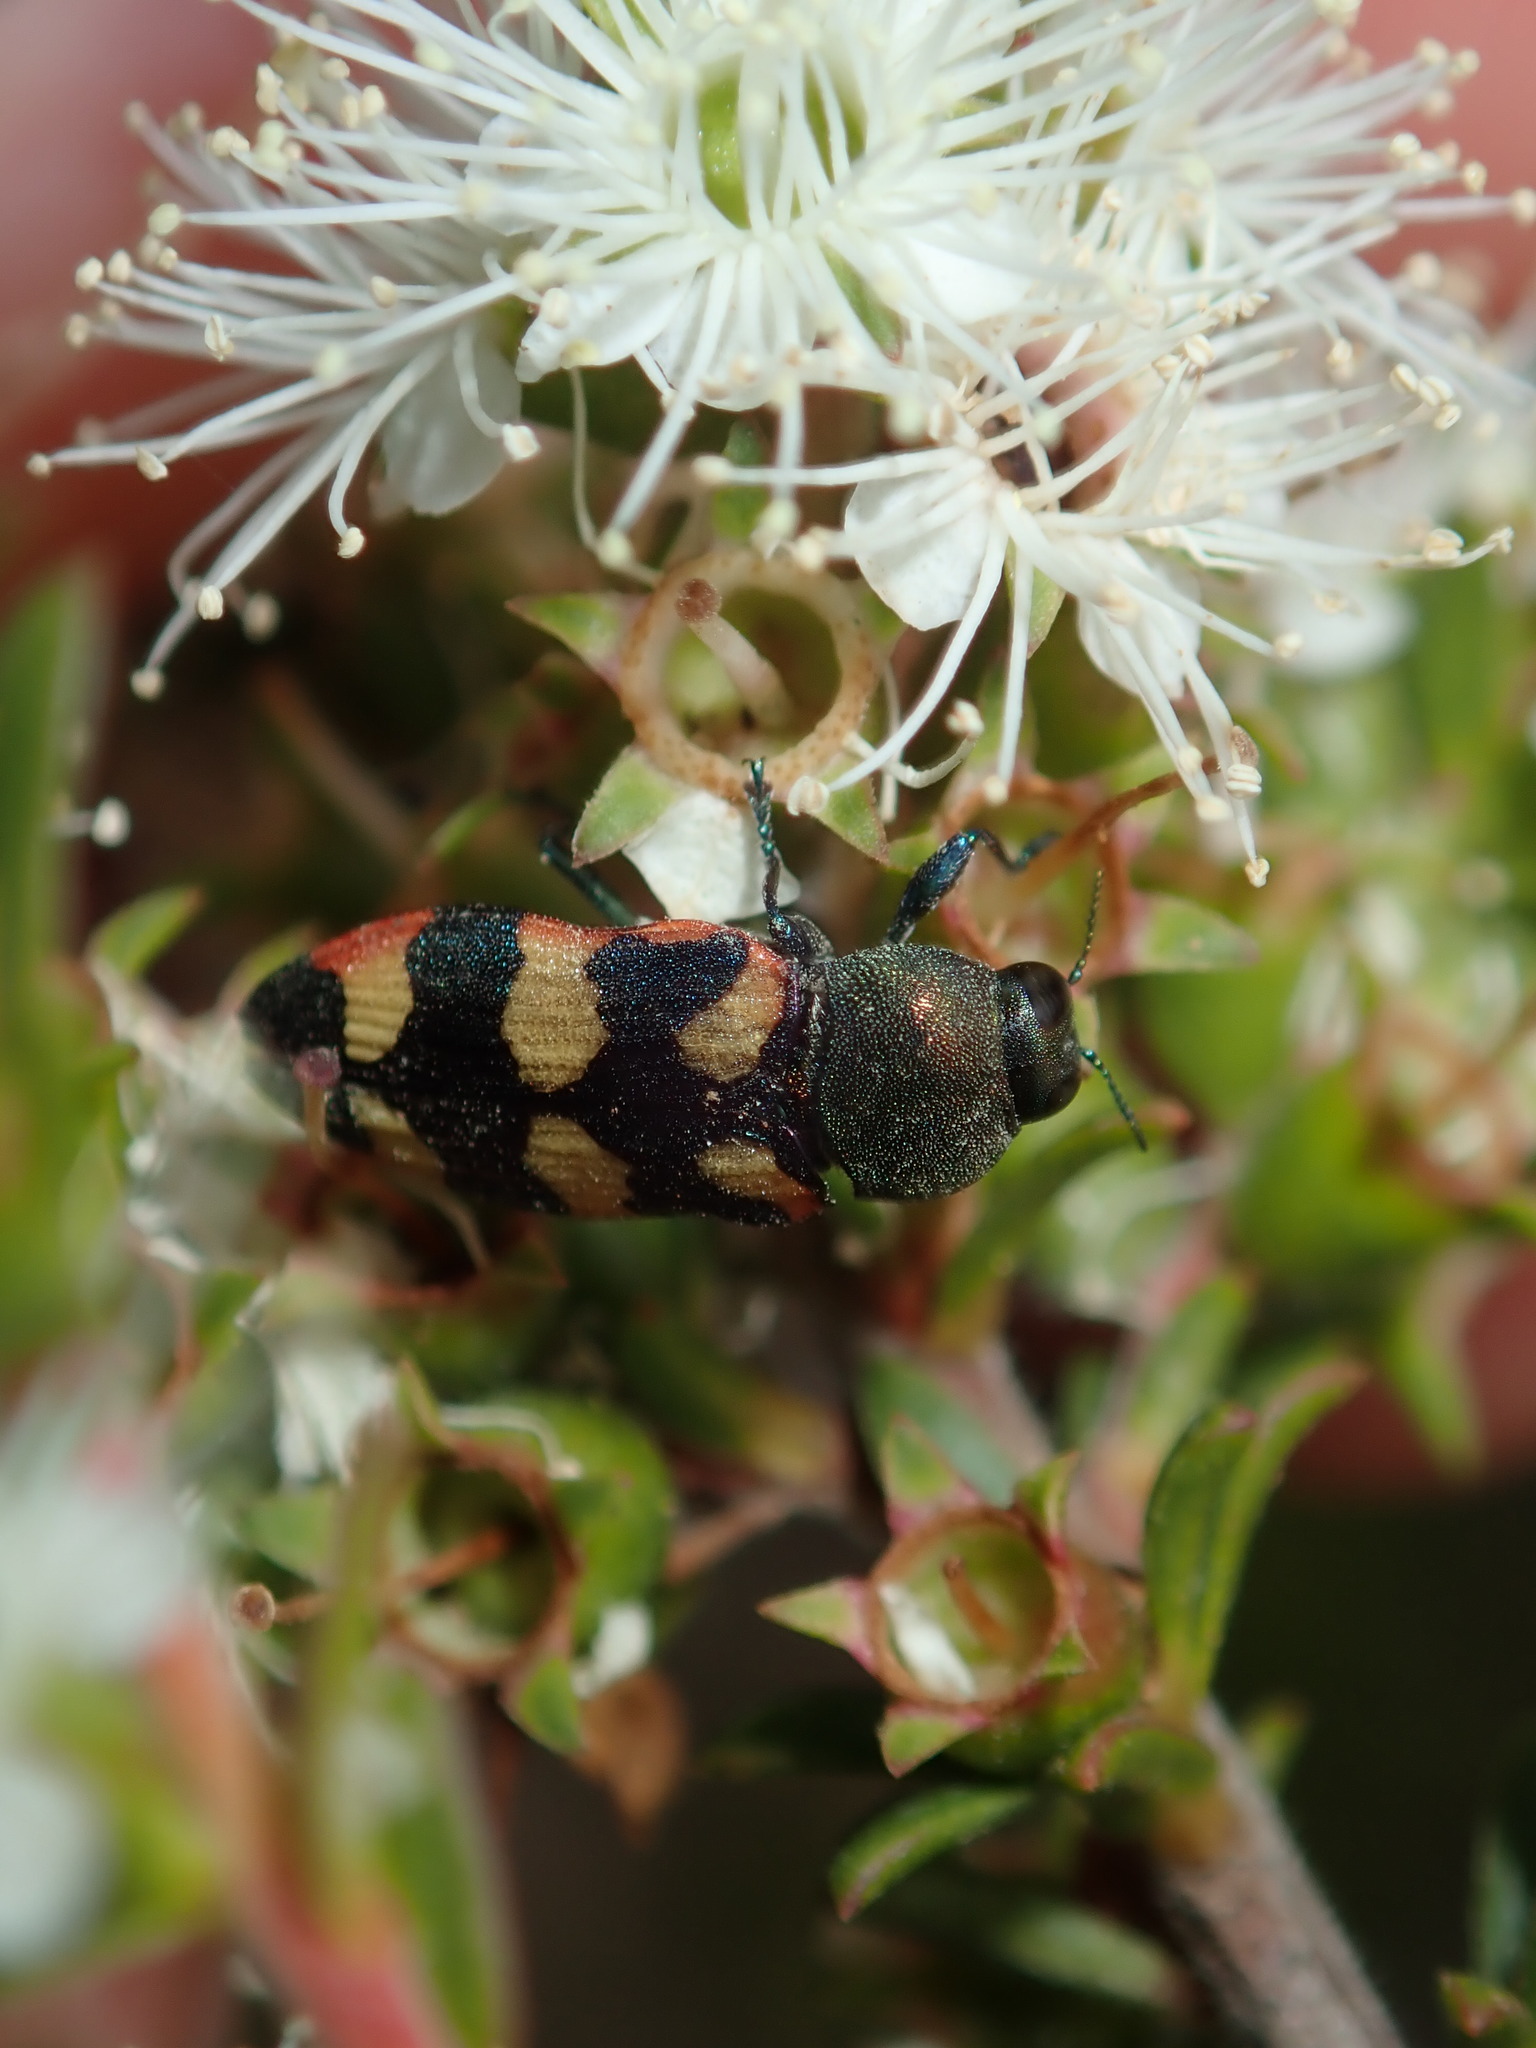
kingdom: Animalia
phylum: Arthropoda
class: Insecta
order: Coleoptera
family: Buprestidae
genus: Castiarina
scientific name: Castiarina sexplagiata
